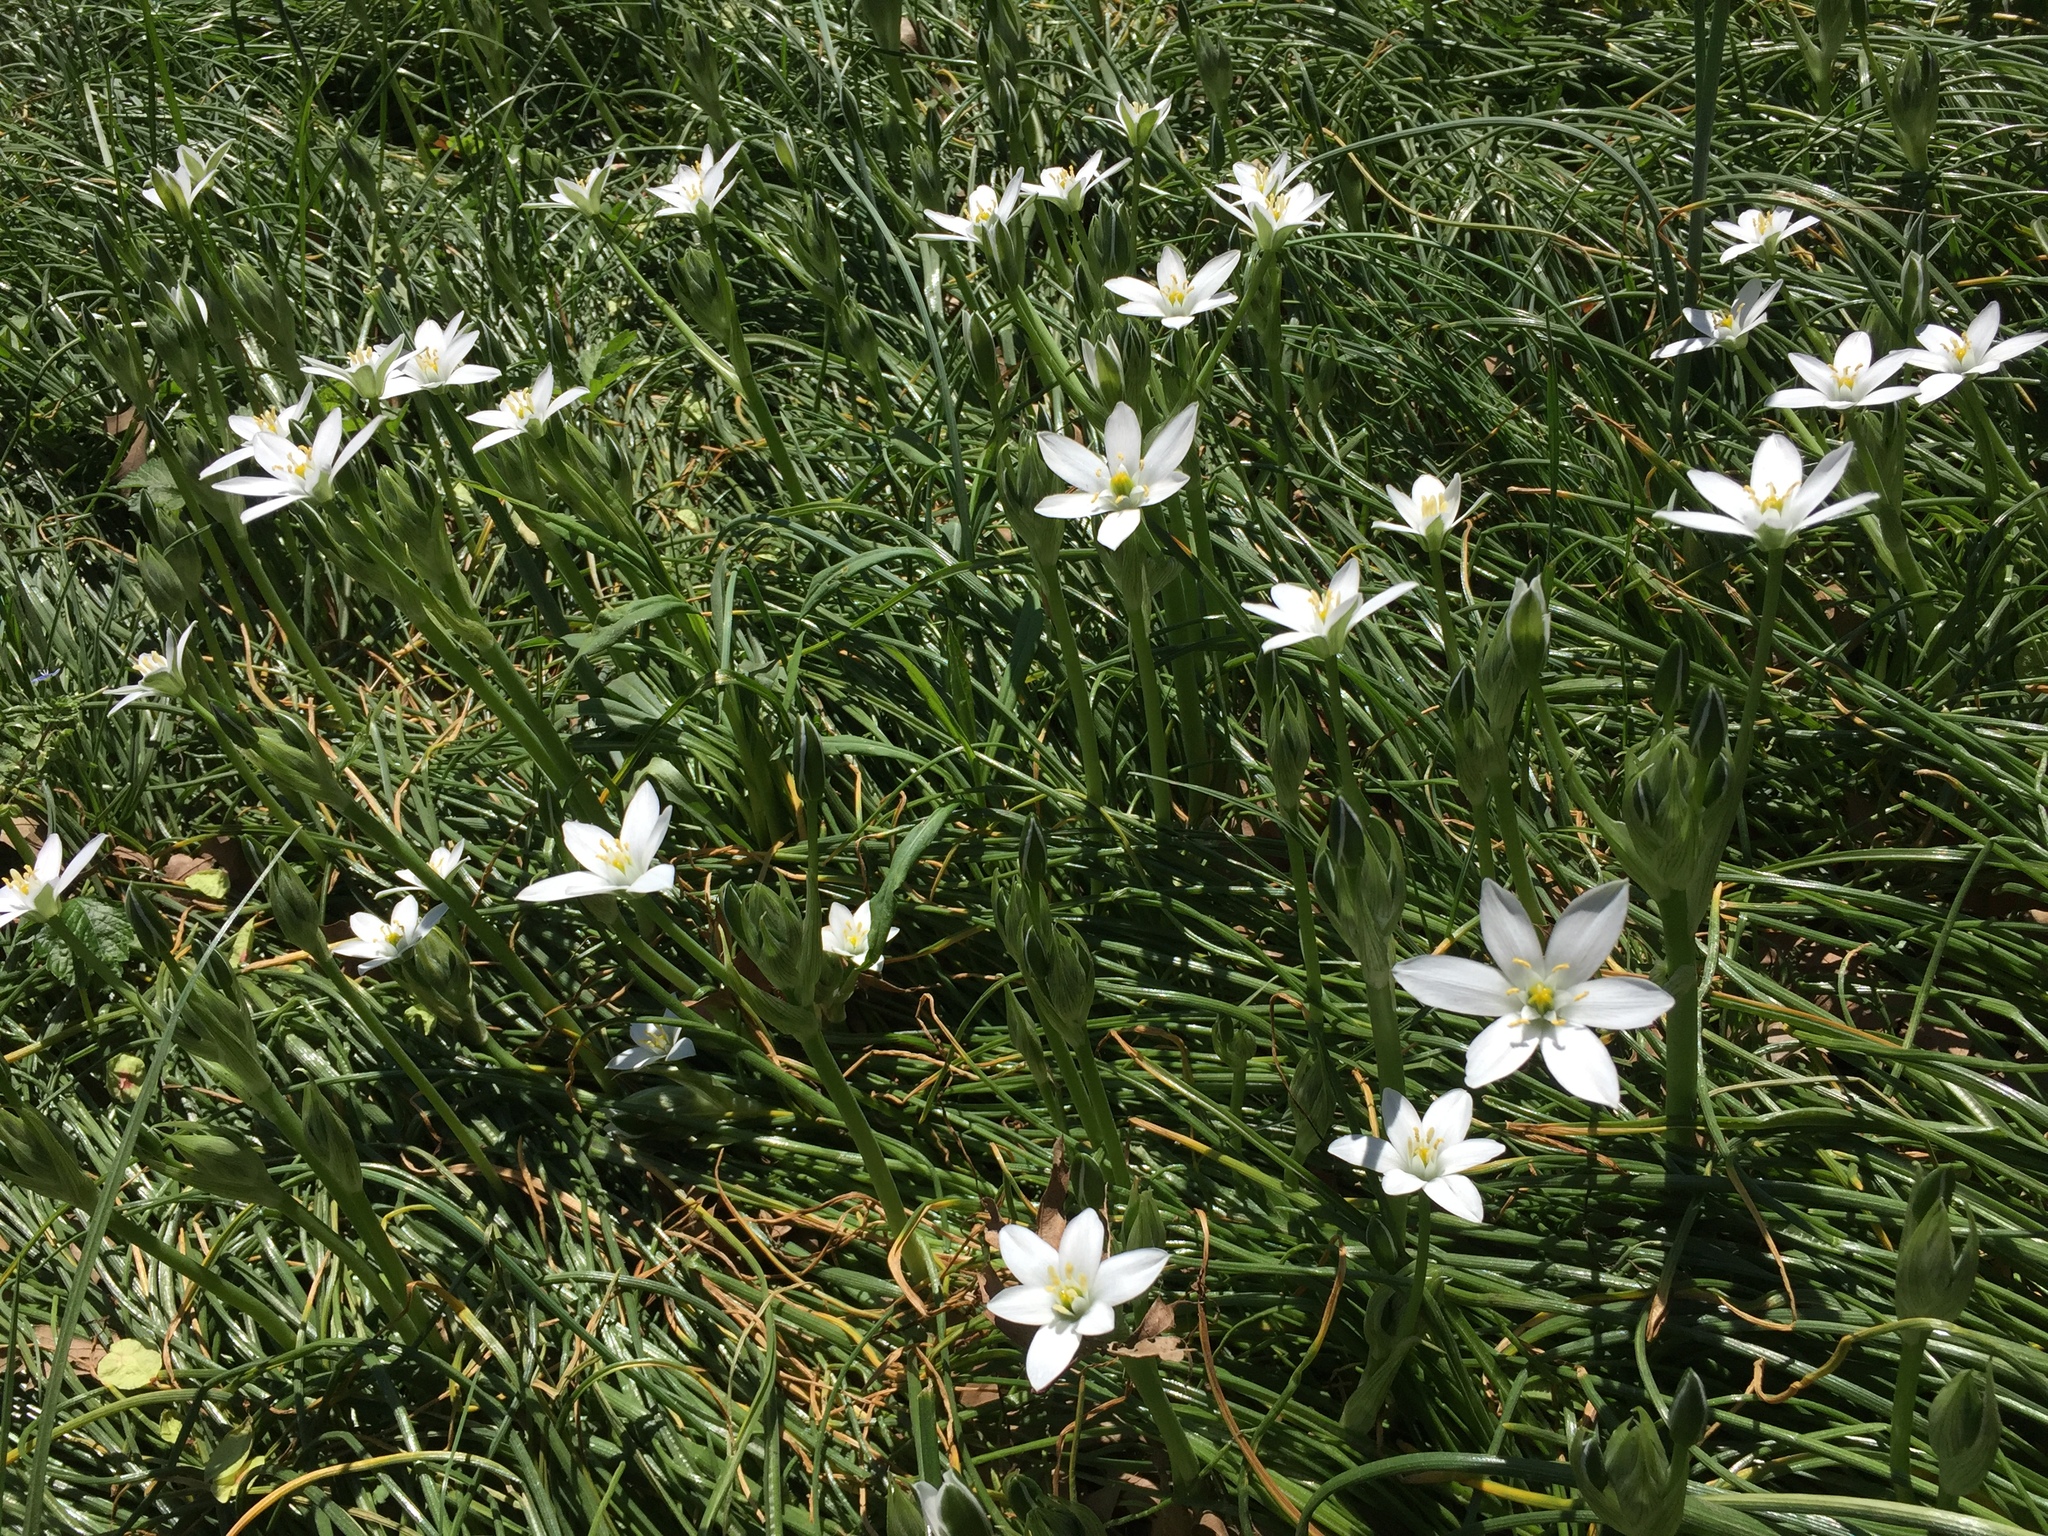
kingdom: Plantae
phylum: Tracheophyta
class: Liliopsida
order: Asparagales
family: Asparagaceae
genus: Ornithogalum
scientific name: Ornithogalum umbellatum
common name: Garden star-of-bethlehem
